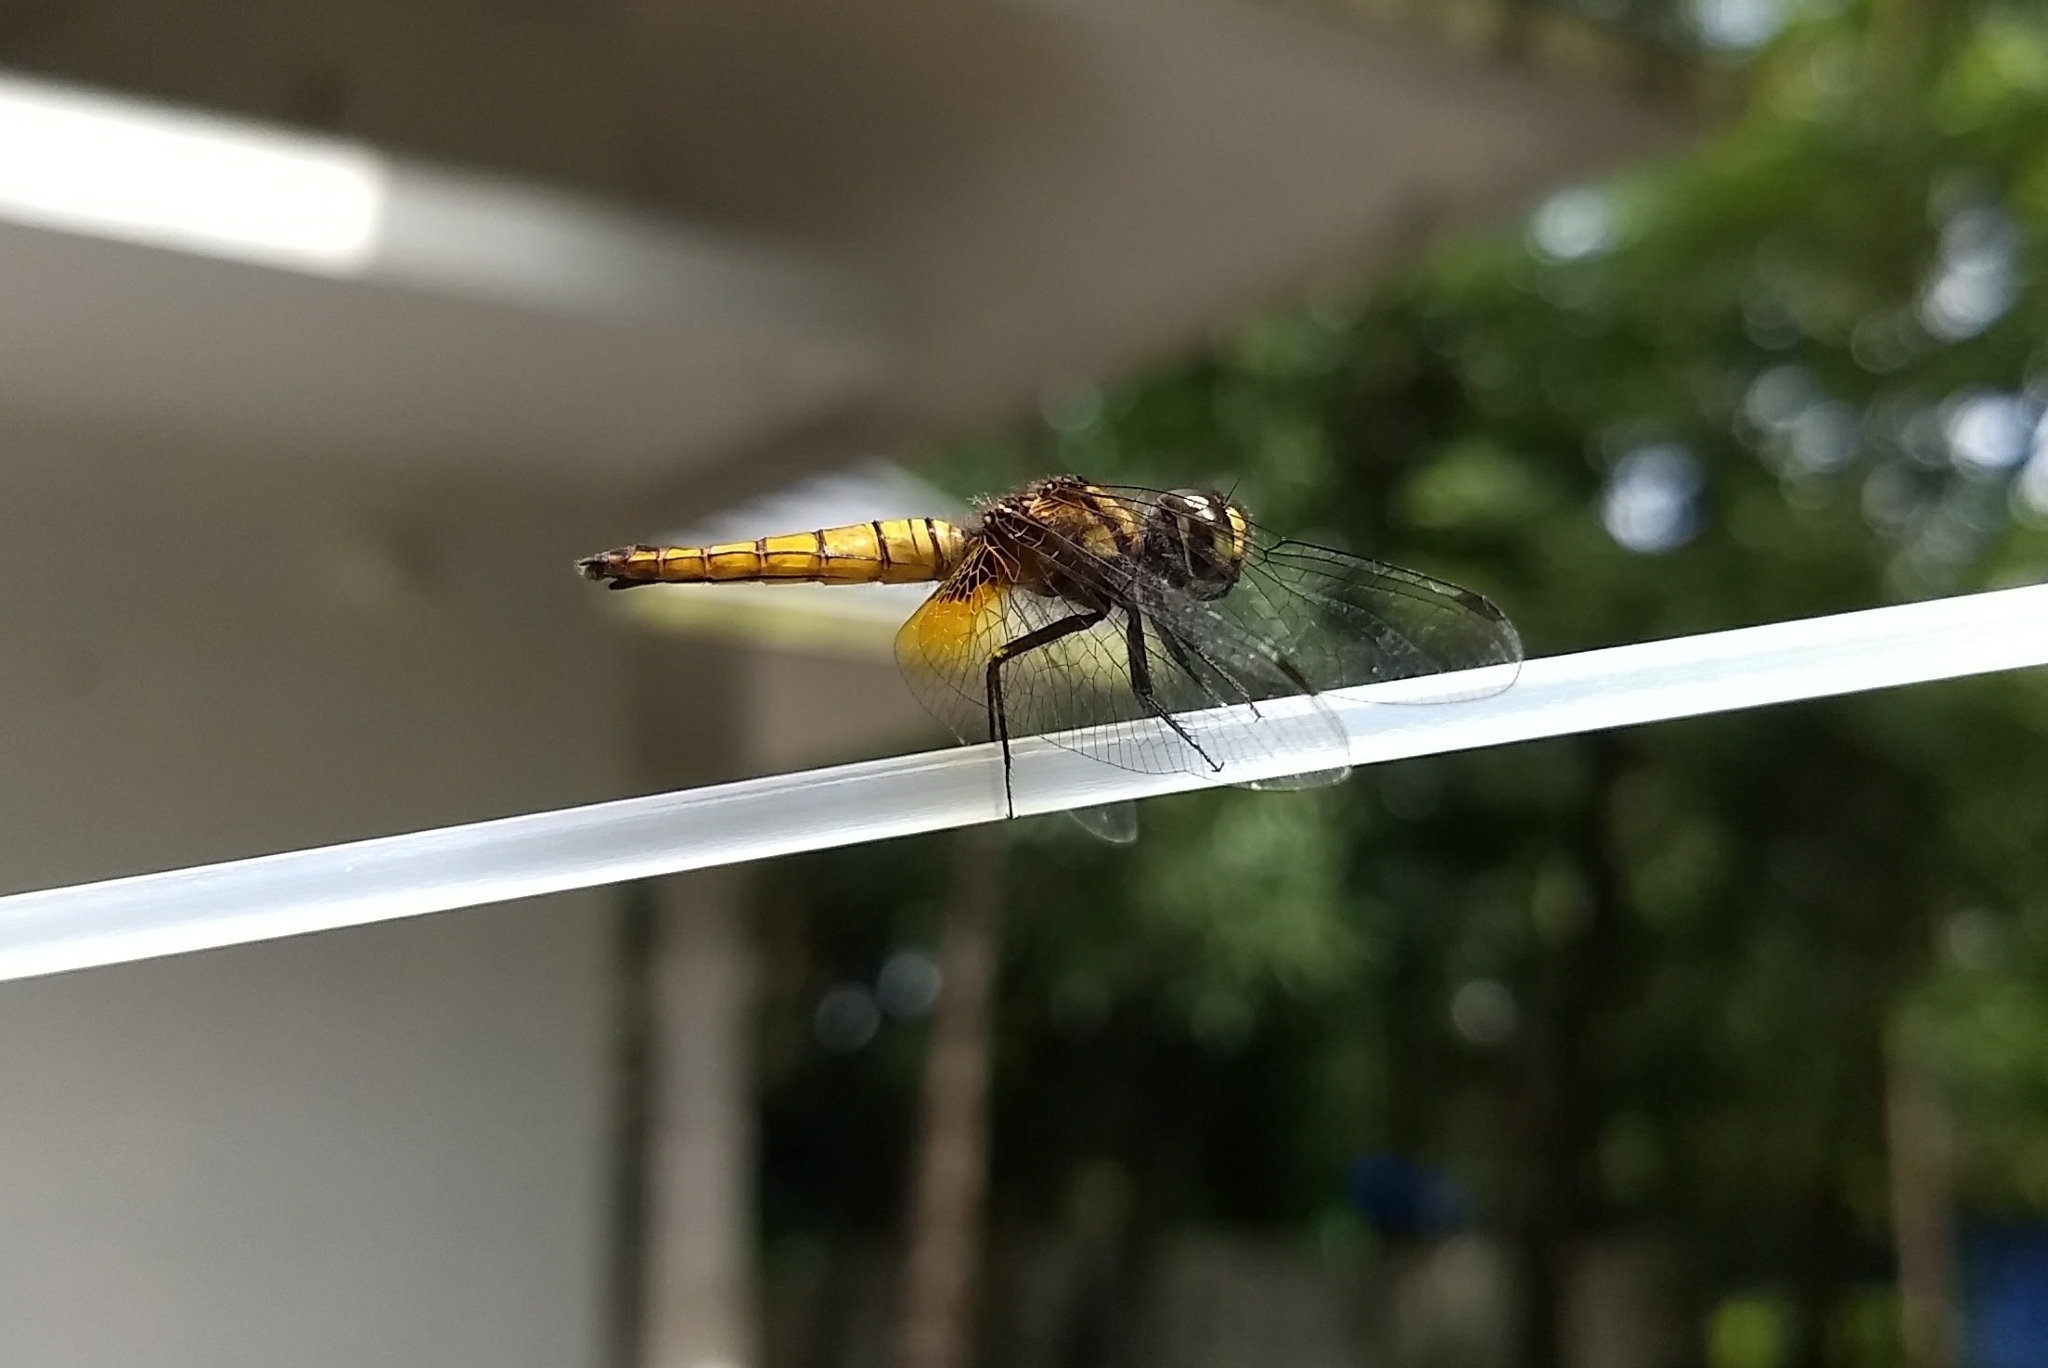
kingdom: Animalia
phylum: Arthropoda
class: Insecta
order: Odonata
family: Libellulidae
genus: Aethriamanta
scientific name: Aethriamanta brevipennis
